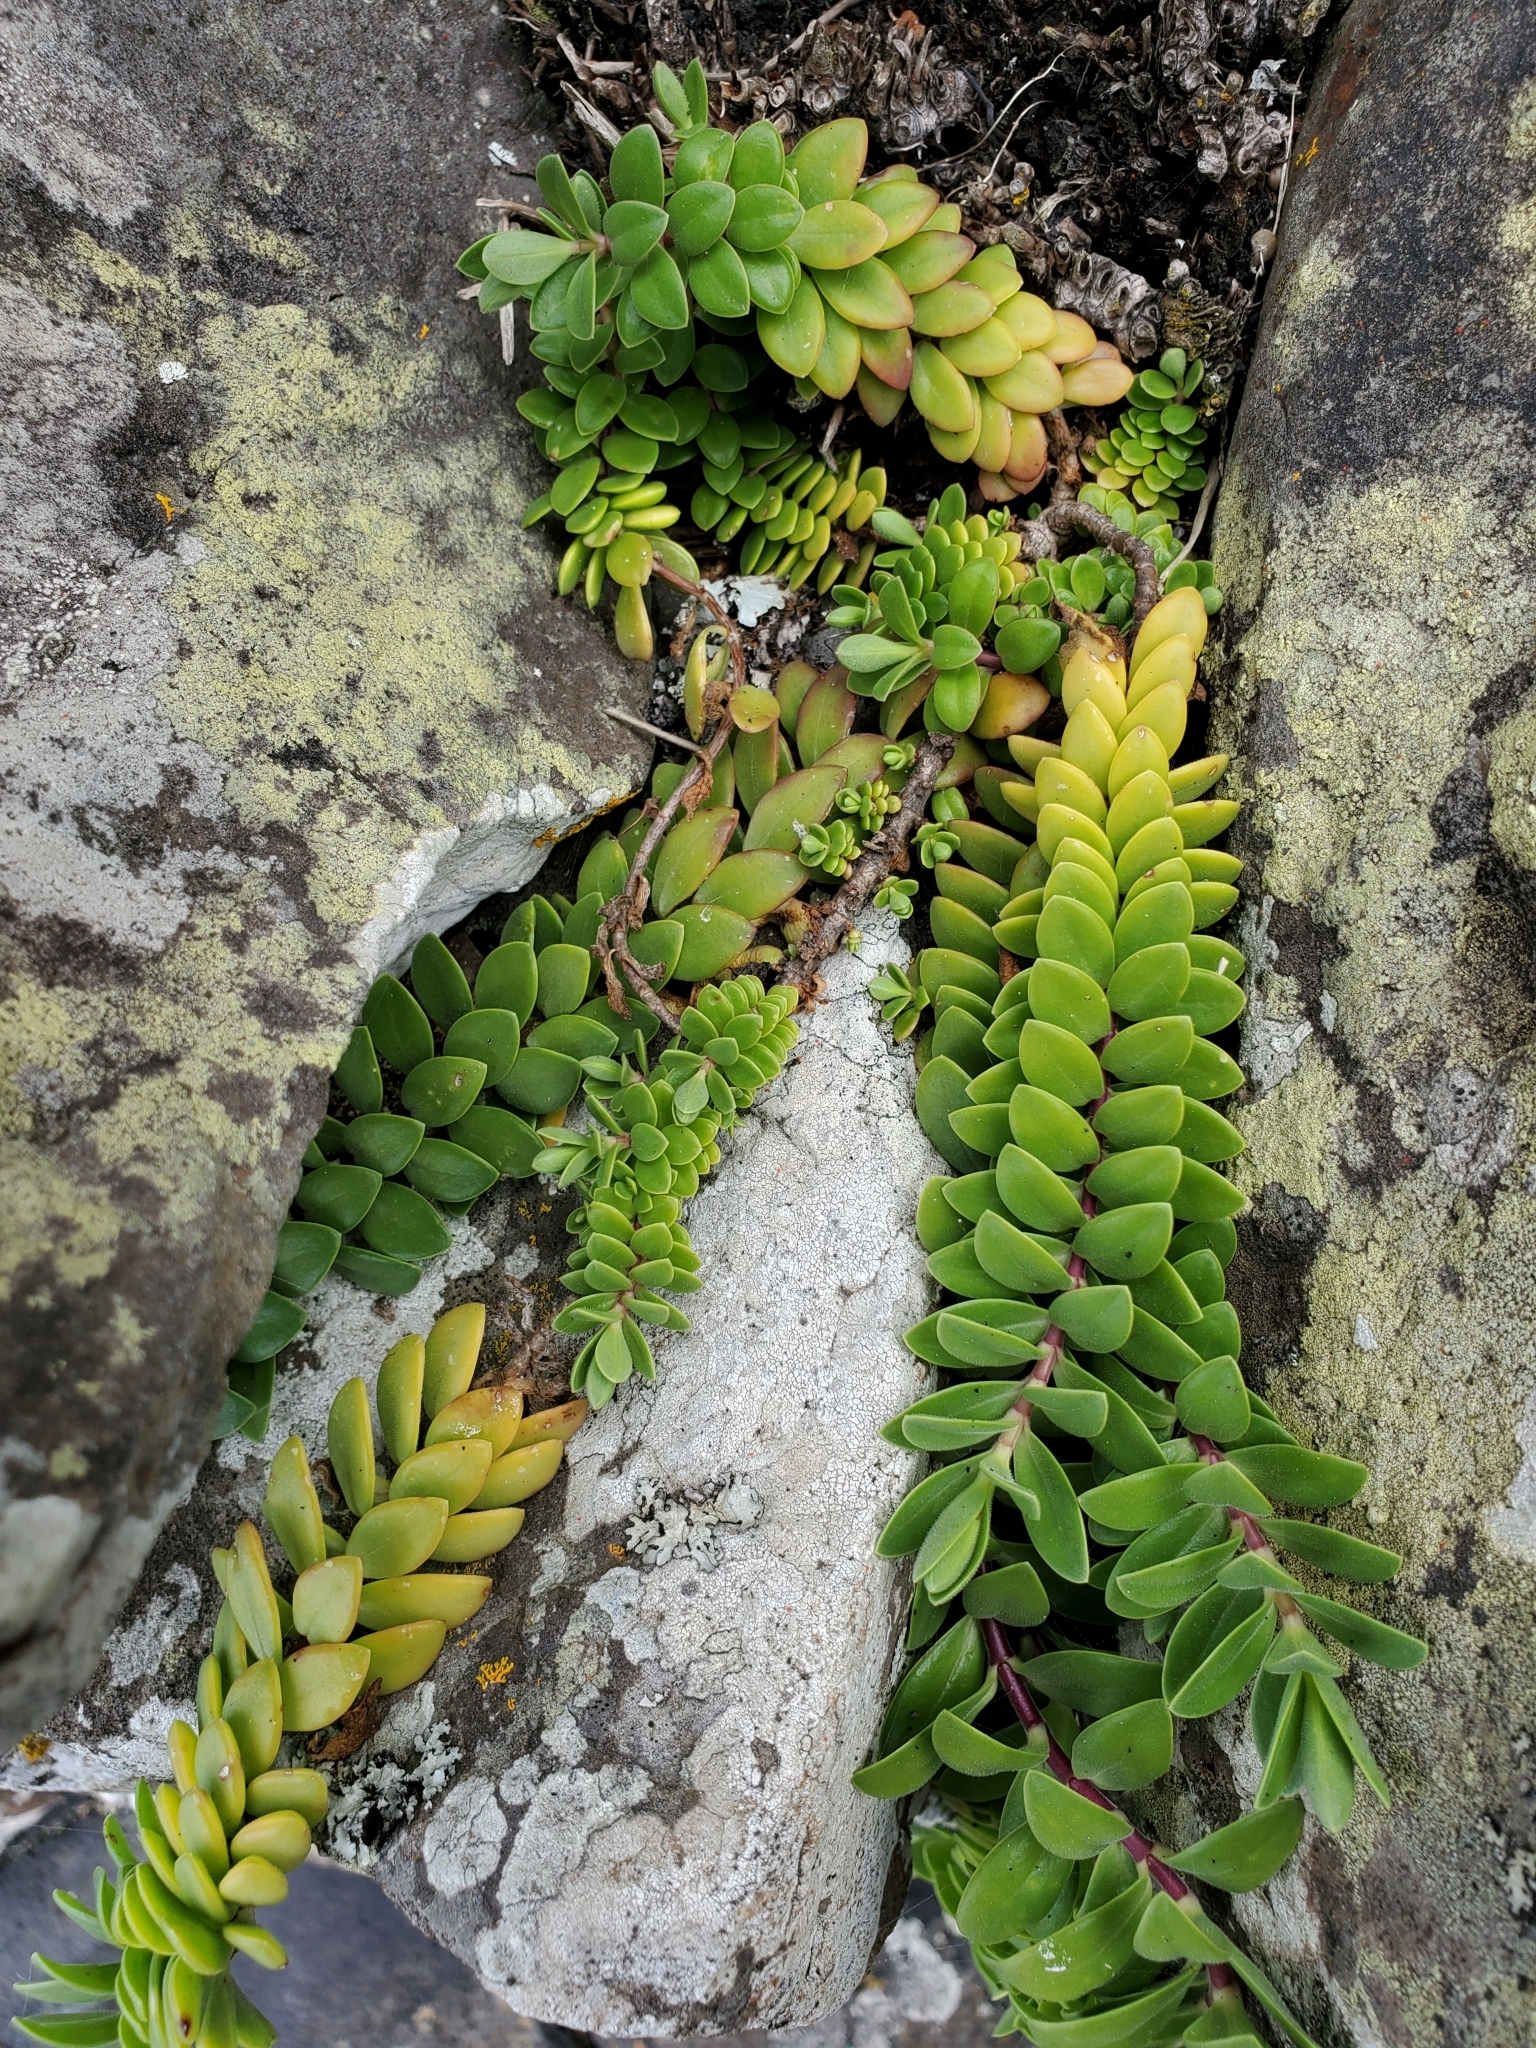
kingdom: Plantae
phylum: Tracheophyta
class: Magnoliopsida
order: Lamiales
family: Plantaginaceae
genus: Veronica
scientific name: Veronica chathamica
